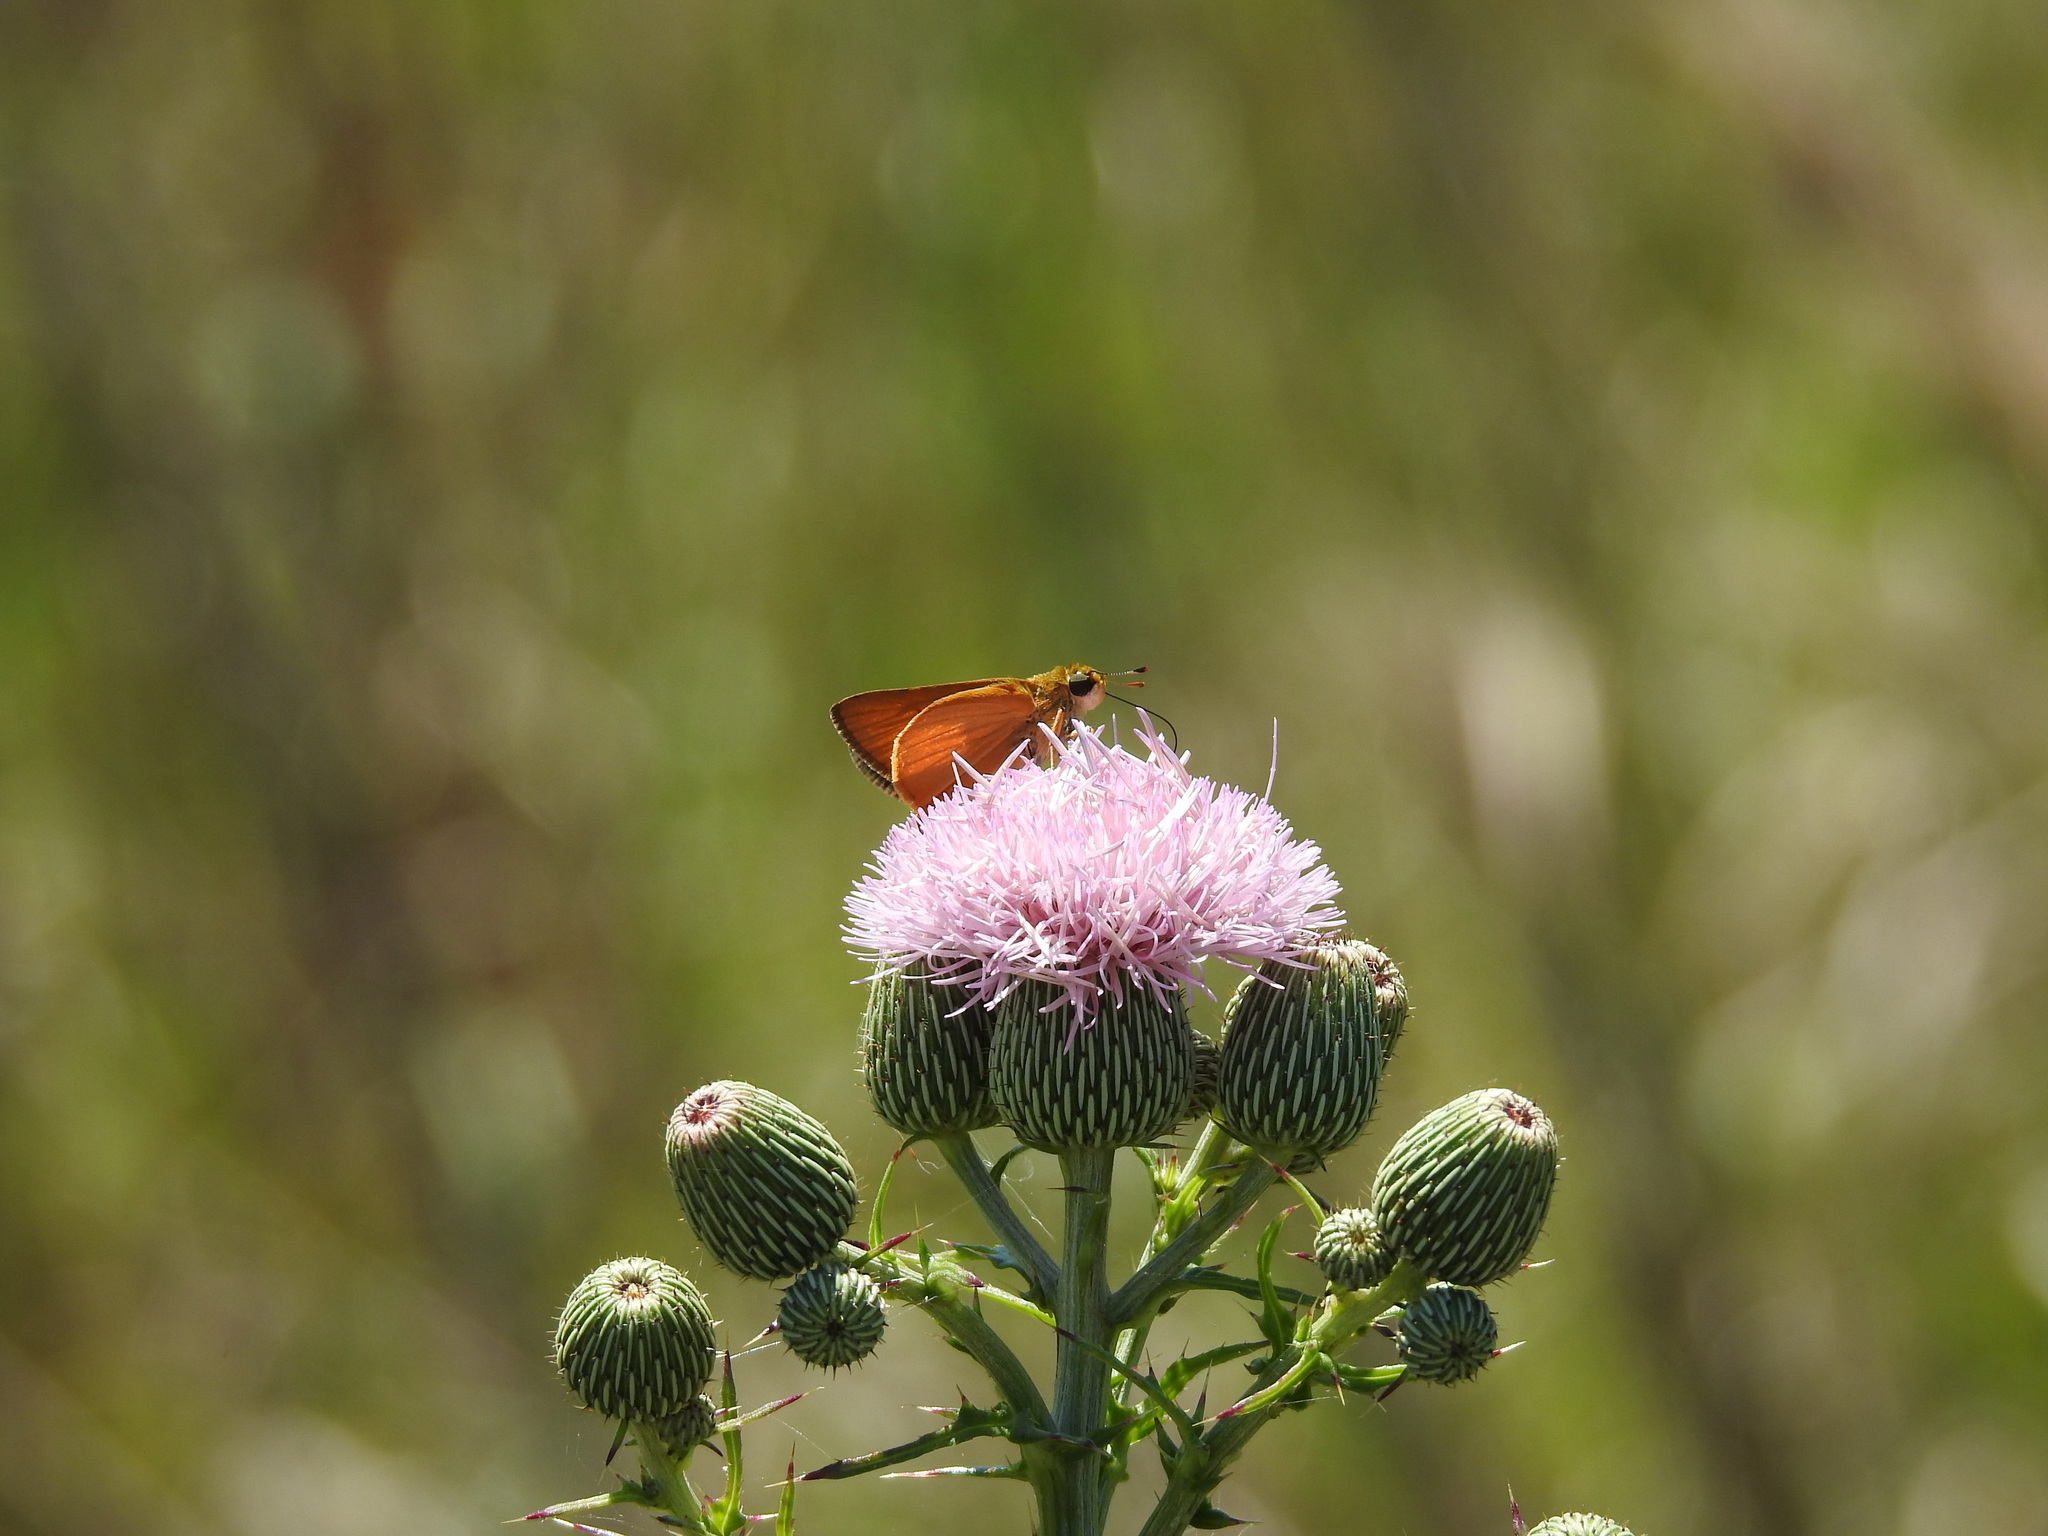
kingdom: Animalia
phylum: Arthropoda
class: Insecta
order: Lepidoptera
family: Hesperiidae
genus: Atrytone
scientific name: Atrytone delaware
